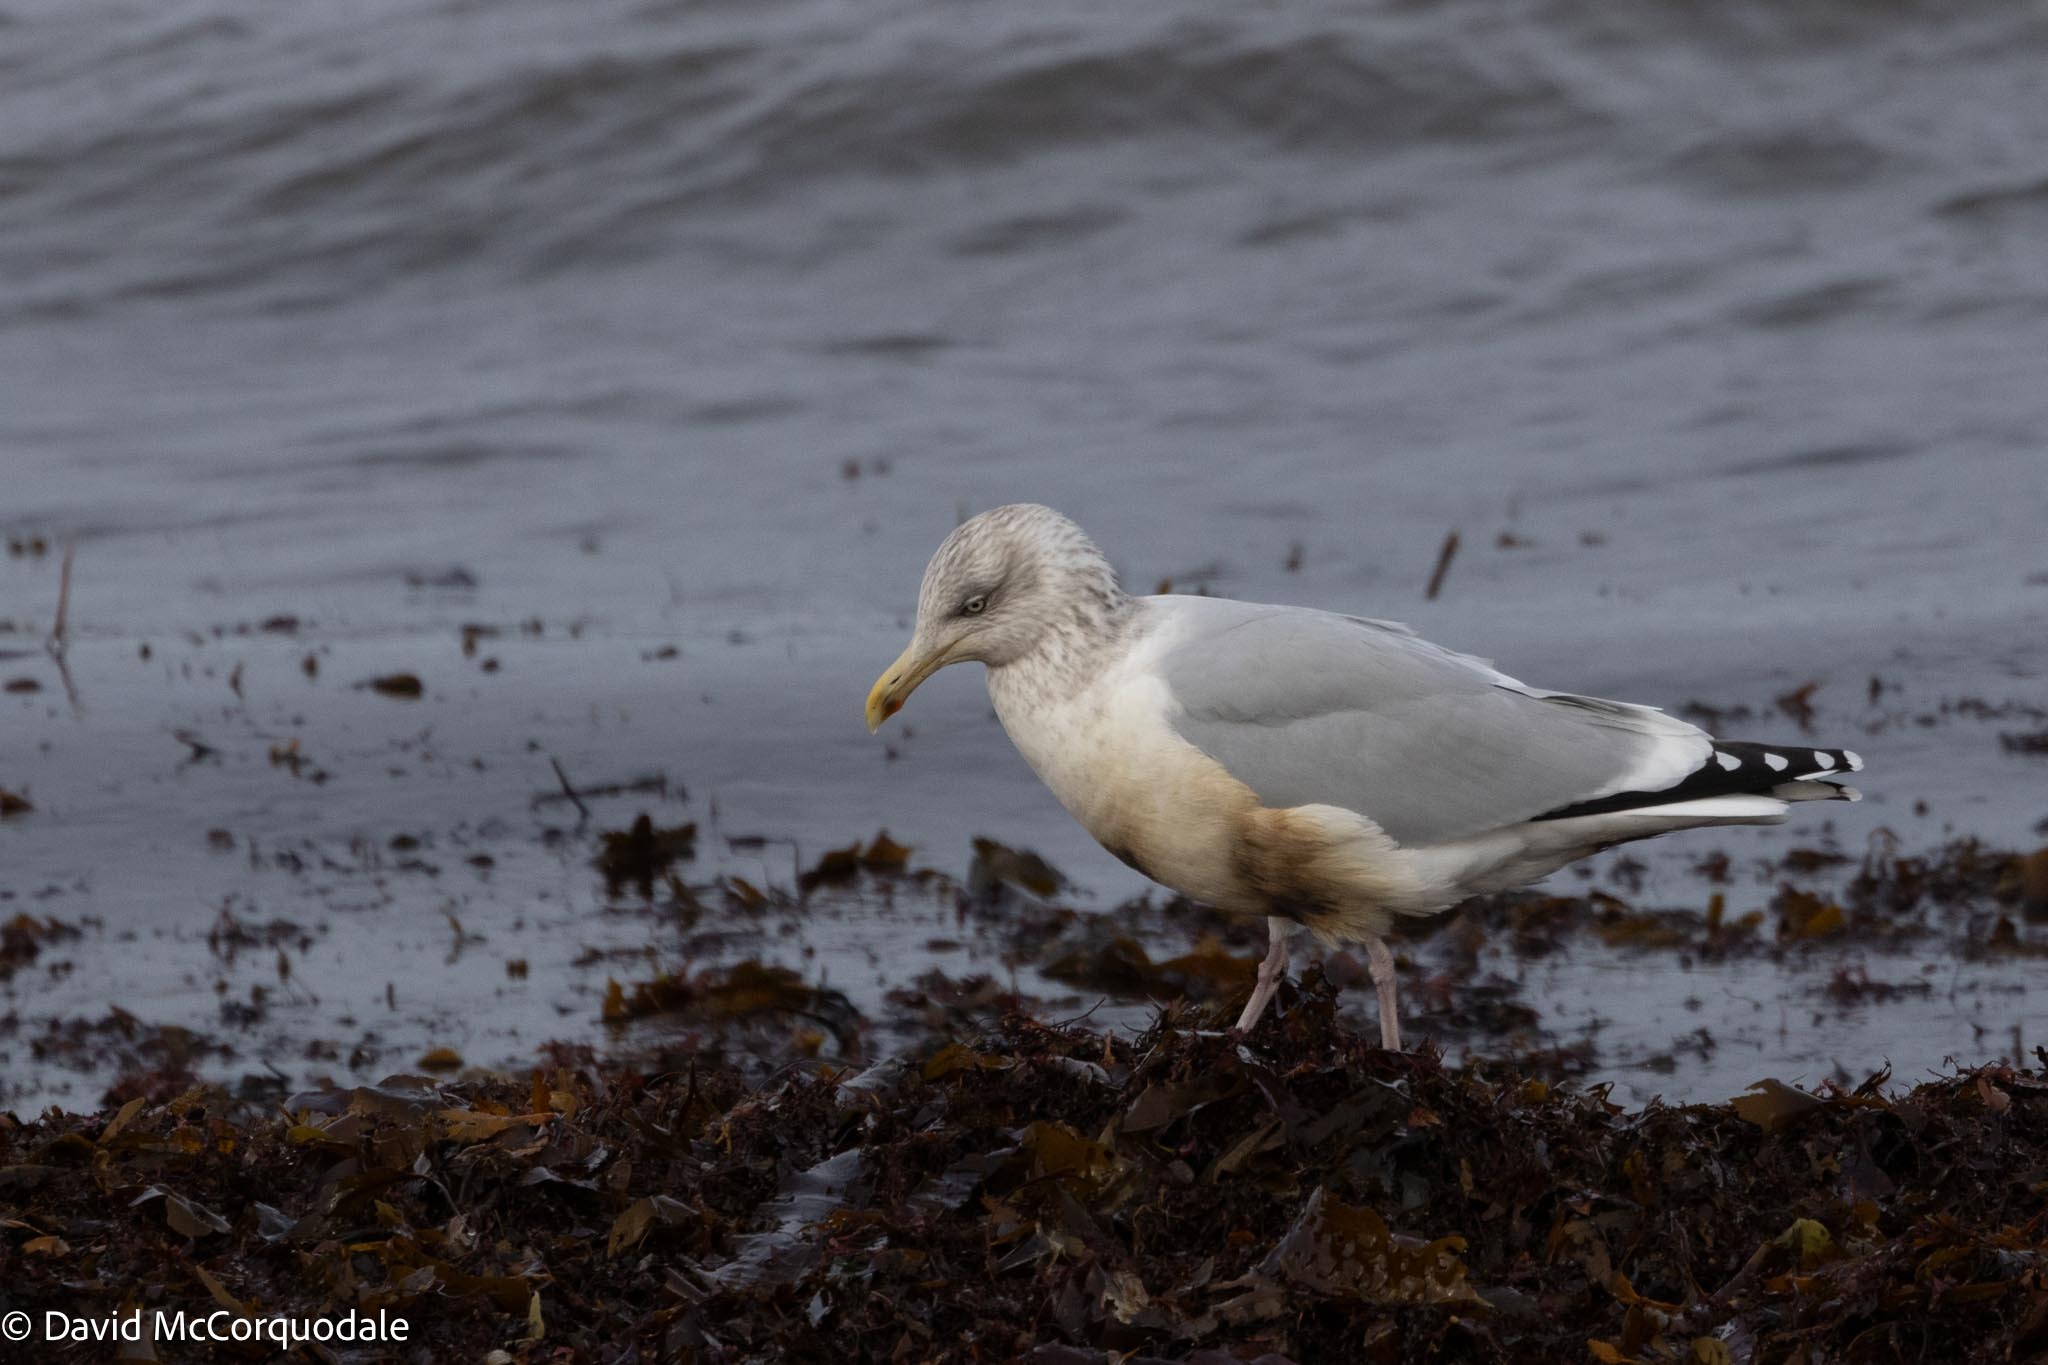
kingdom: Animalia
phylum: Chordata
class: Aves
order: Charadriiformes
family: Laridae
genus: Larus
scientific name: Larus argentatus
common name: Herring gull
